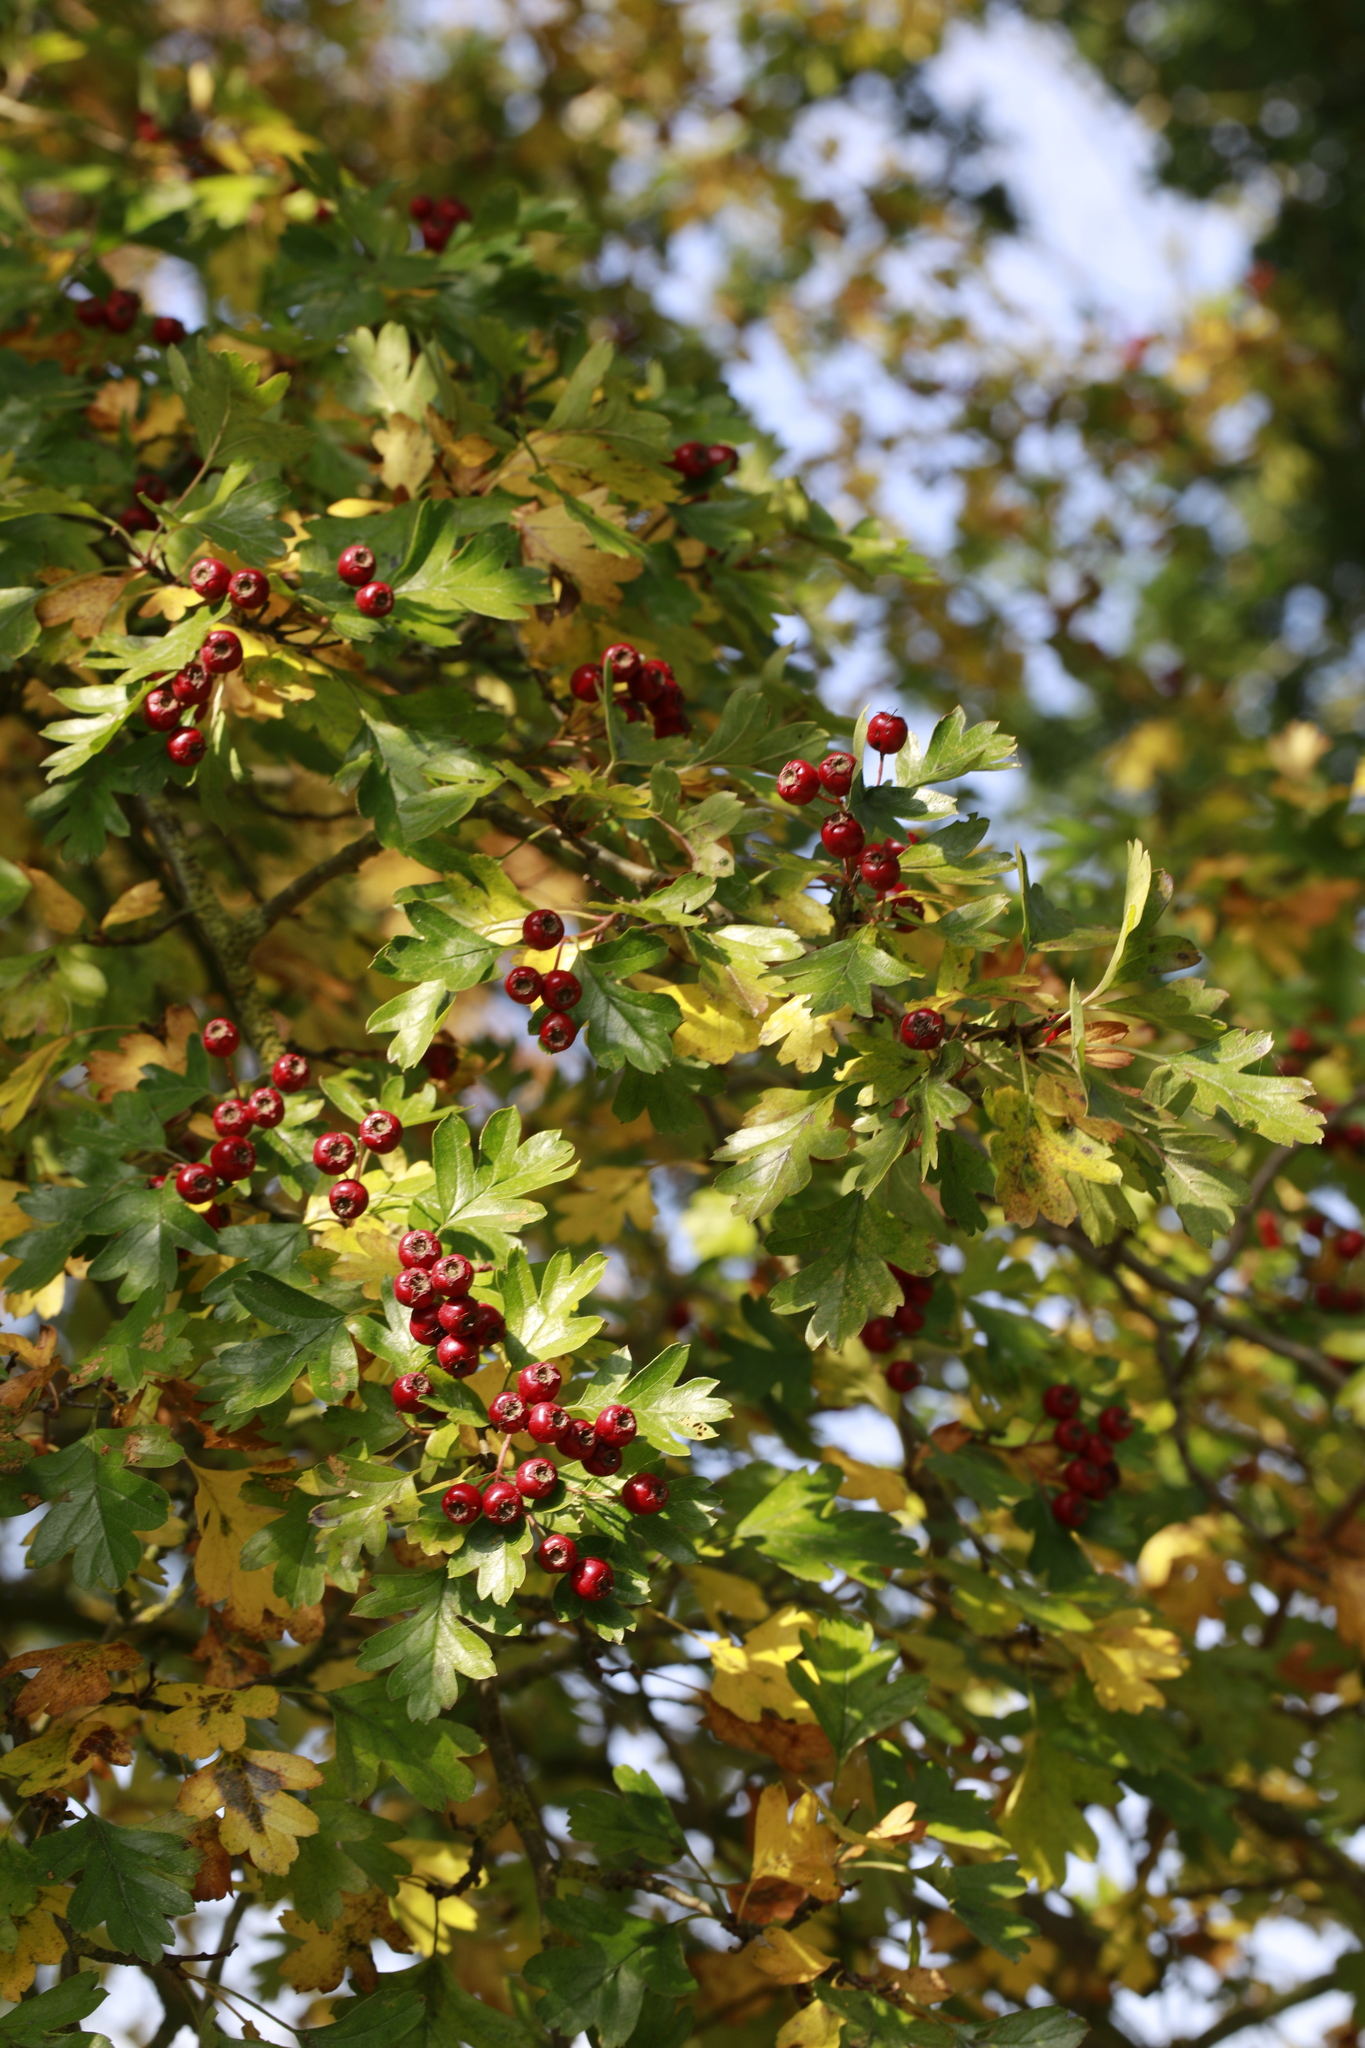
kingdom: Plantae
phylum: Tracheophyta
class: Magnoliopsida
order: Rosales
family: Rosaceae
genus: Crataegus
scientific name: Crataegus monogyna
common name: Hawthorn
